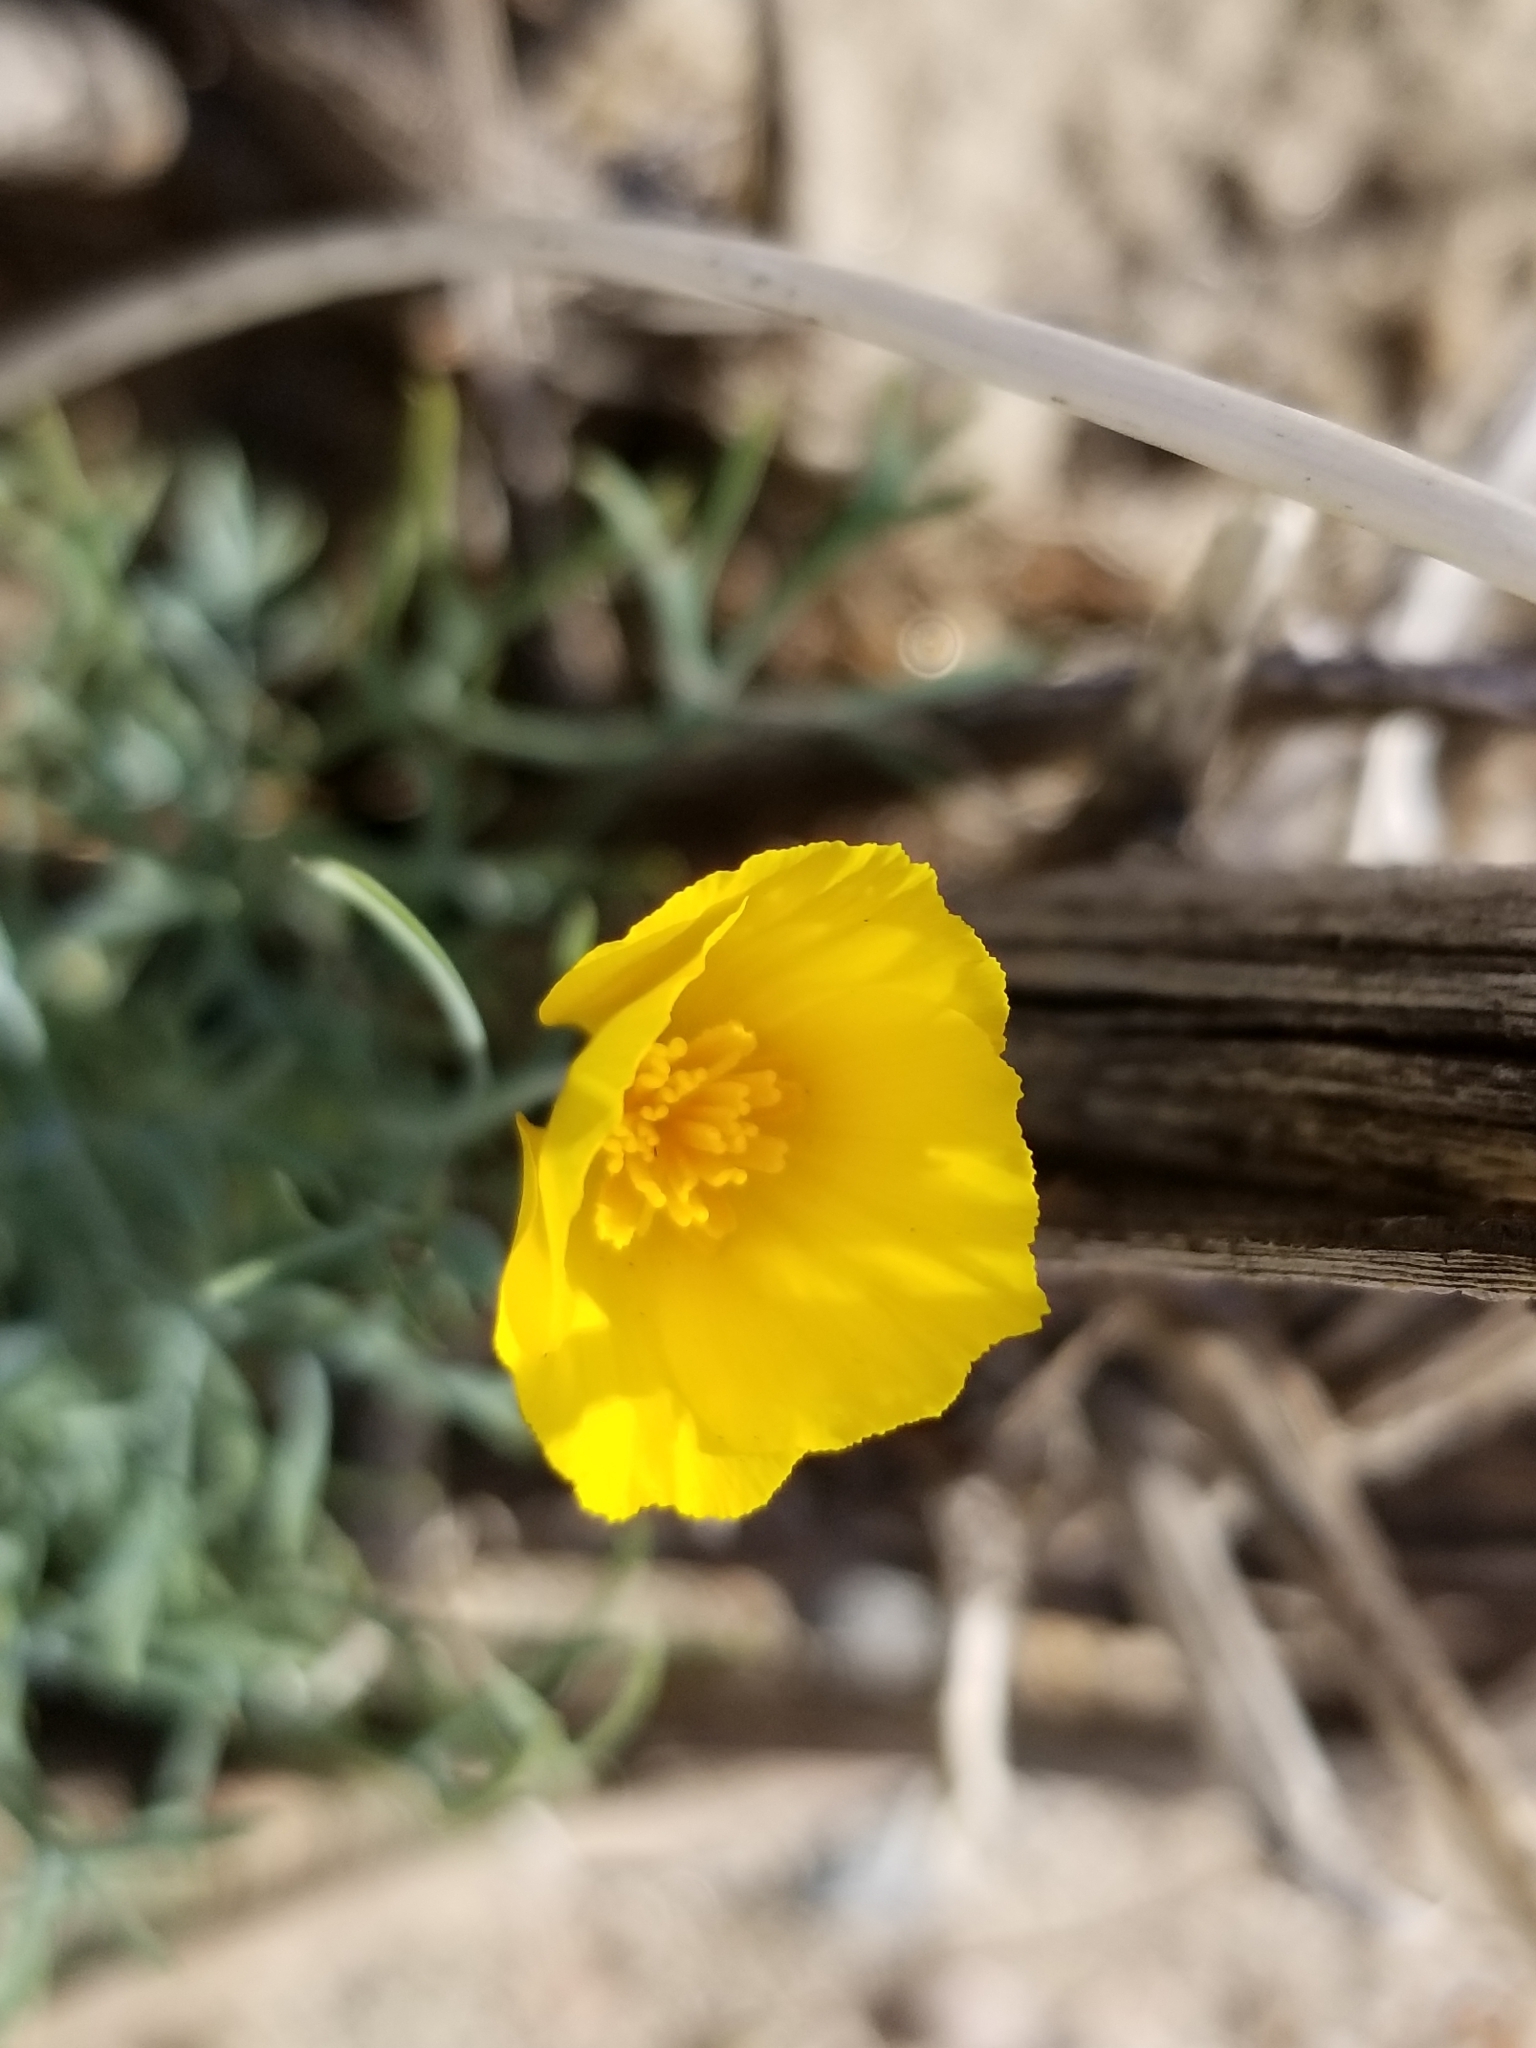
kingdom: Plantae
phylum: Tracheophyta
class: Magnoliopsida
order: Ranunculales
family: Papaveraceae
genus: Eschscholzia
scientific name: Eschscholzia parishii
